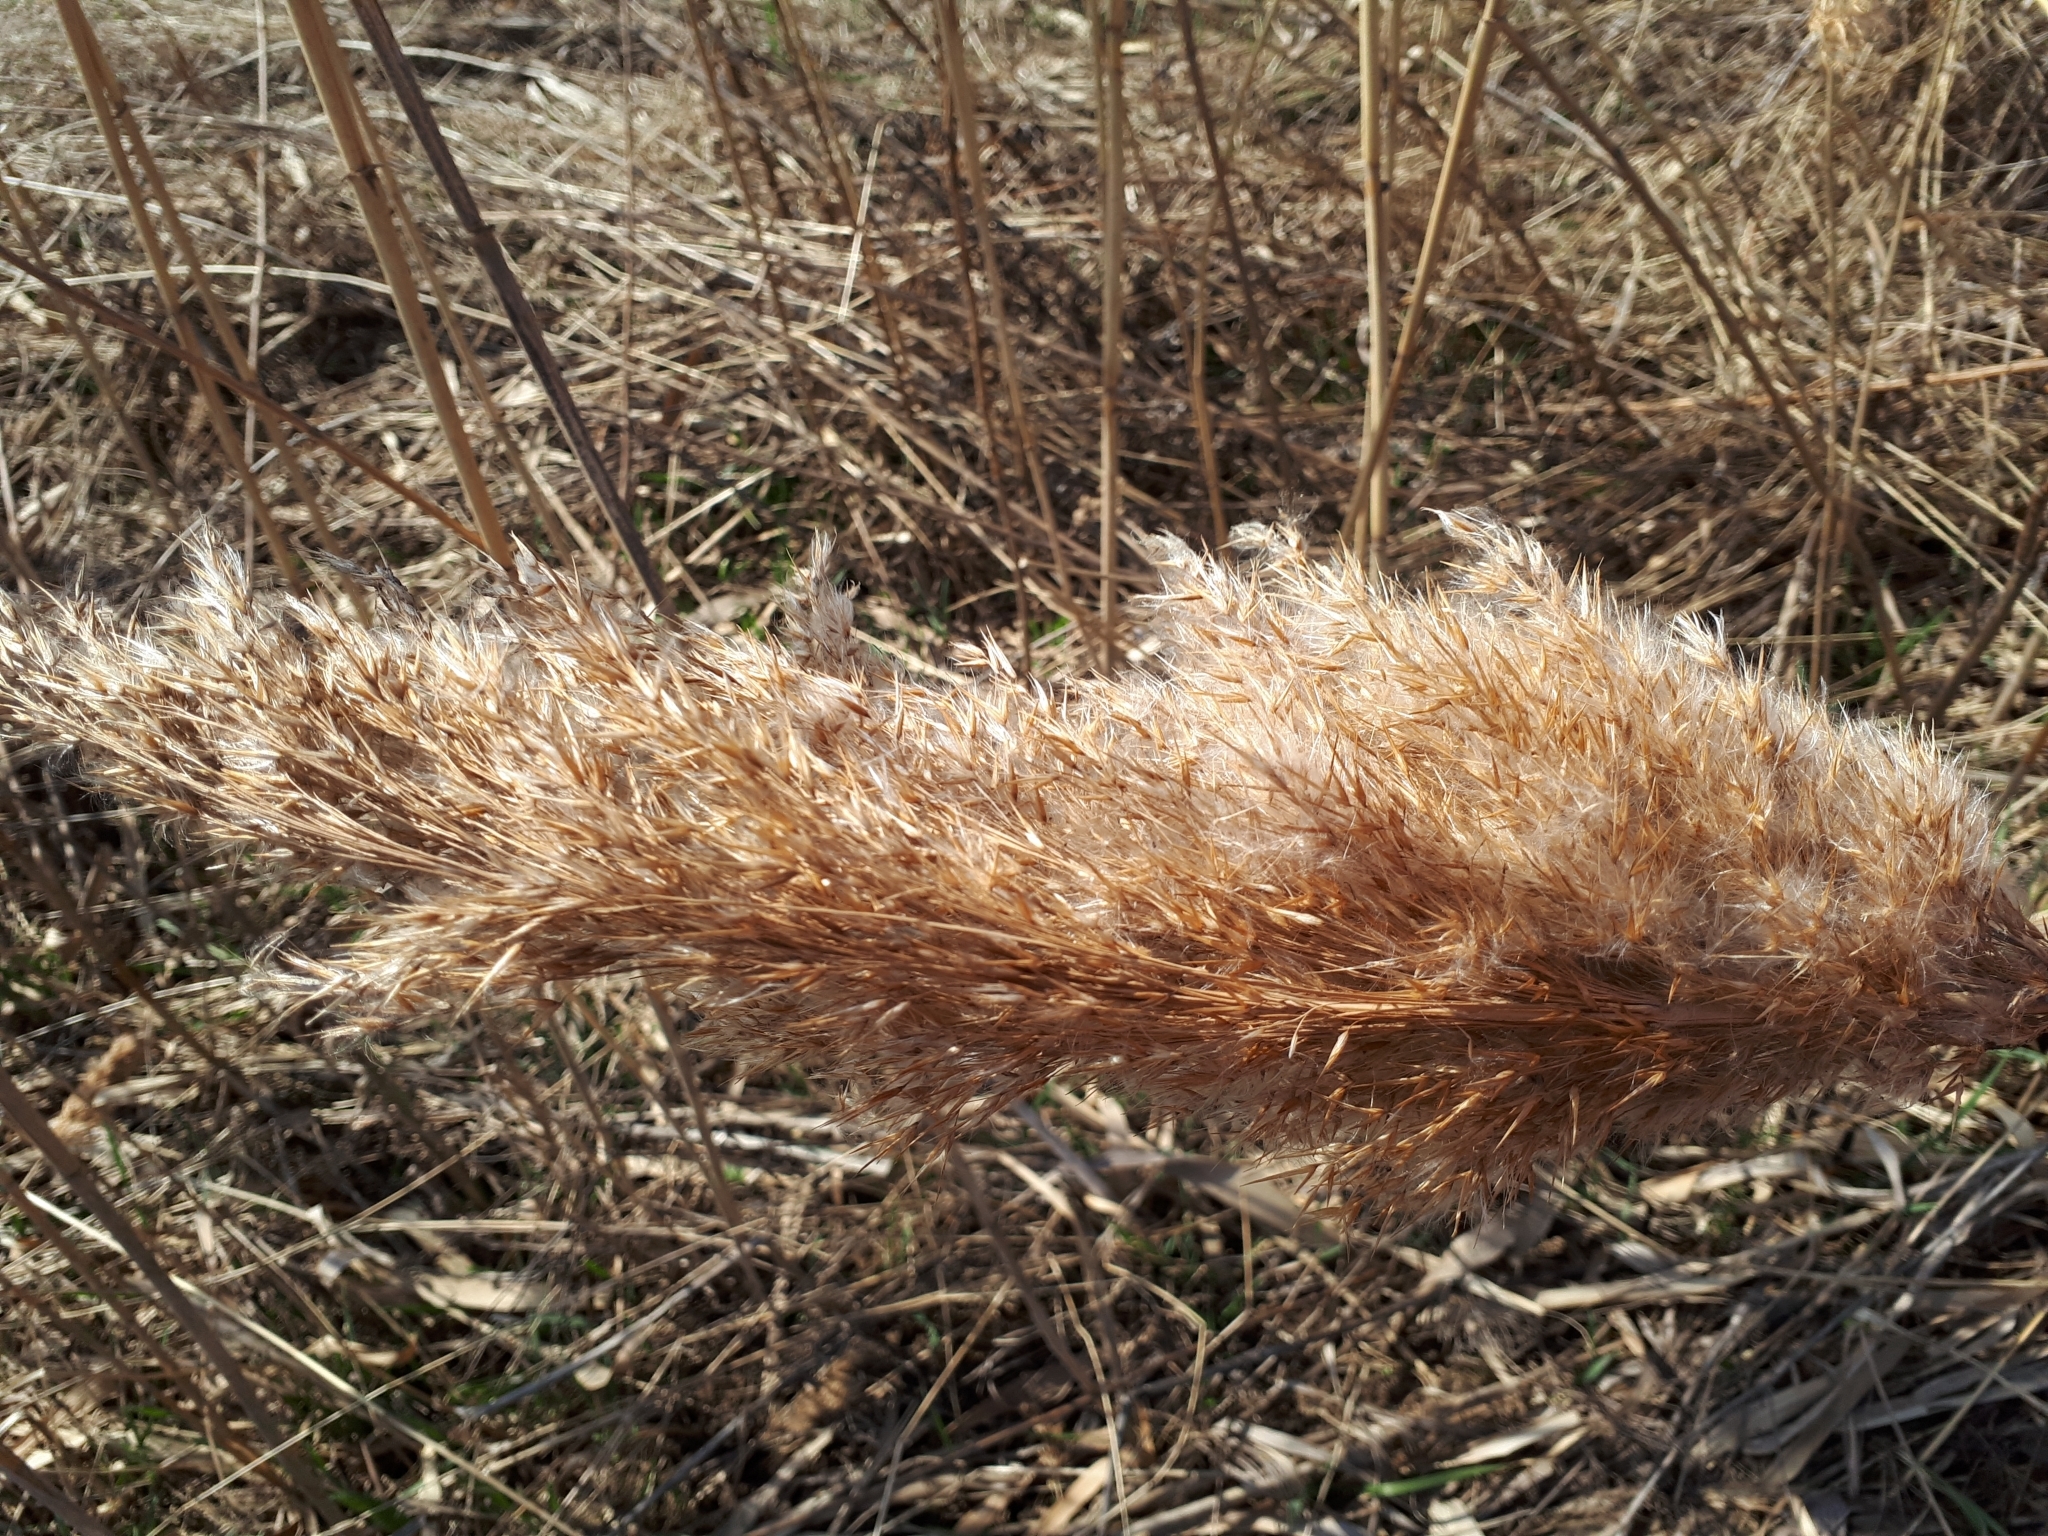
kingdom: Plantae
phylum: Tracheophyta
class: Liliopsida
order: Poales
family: Poaceae
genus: Phragmites
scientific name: Phragmites australis
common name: Common reed
